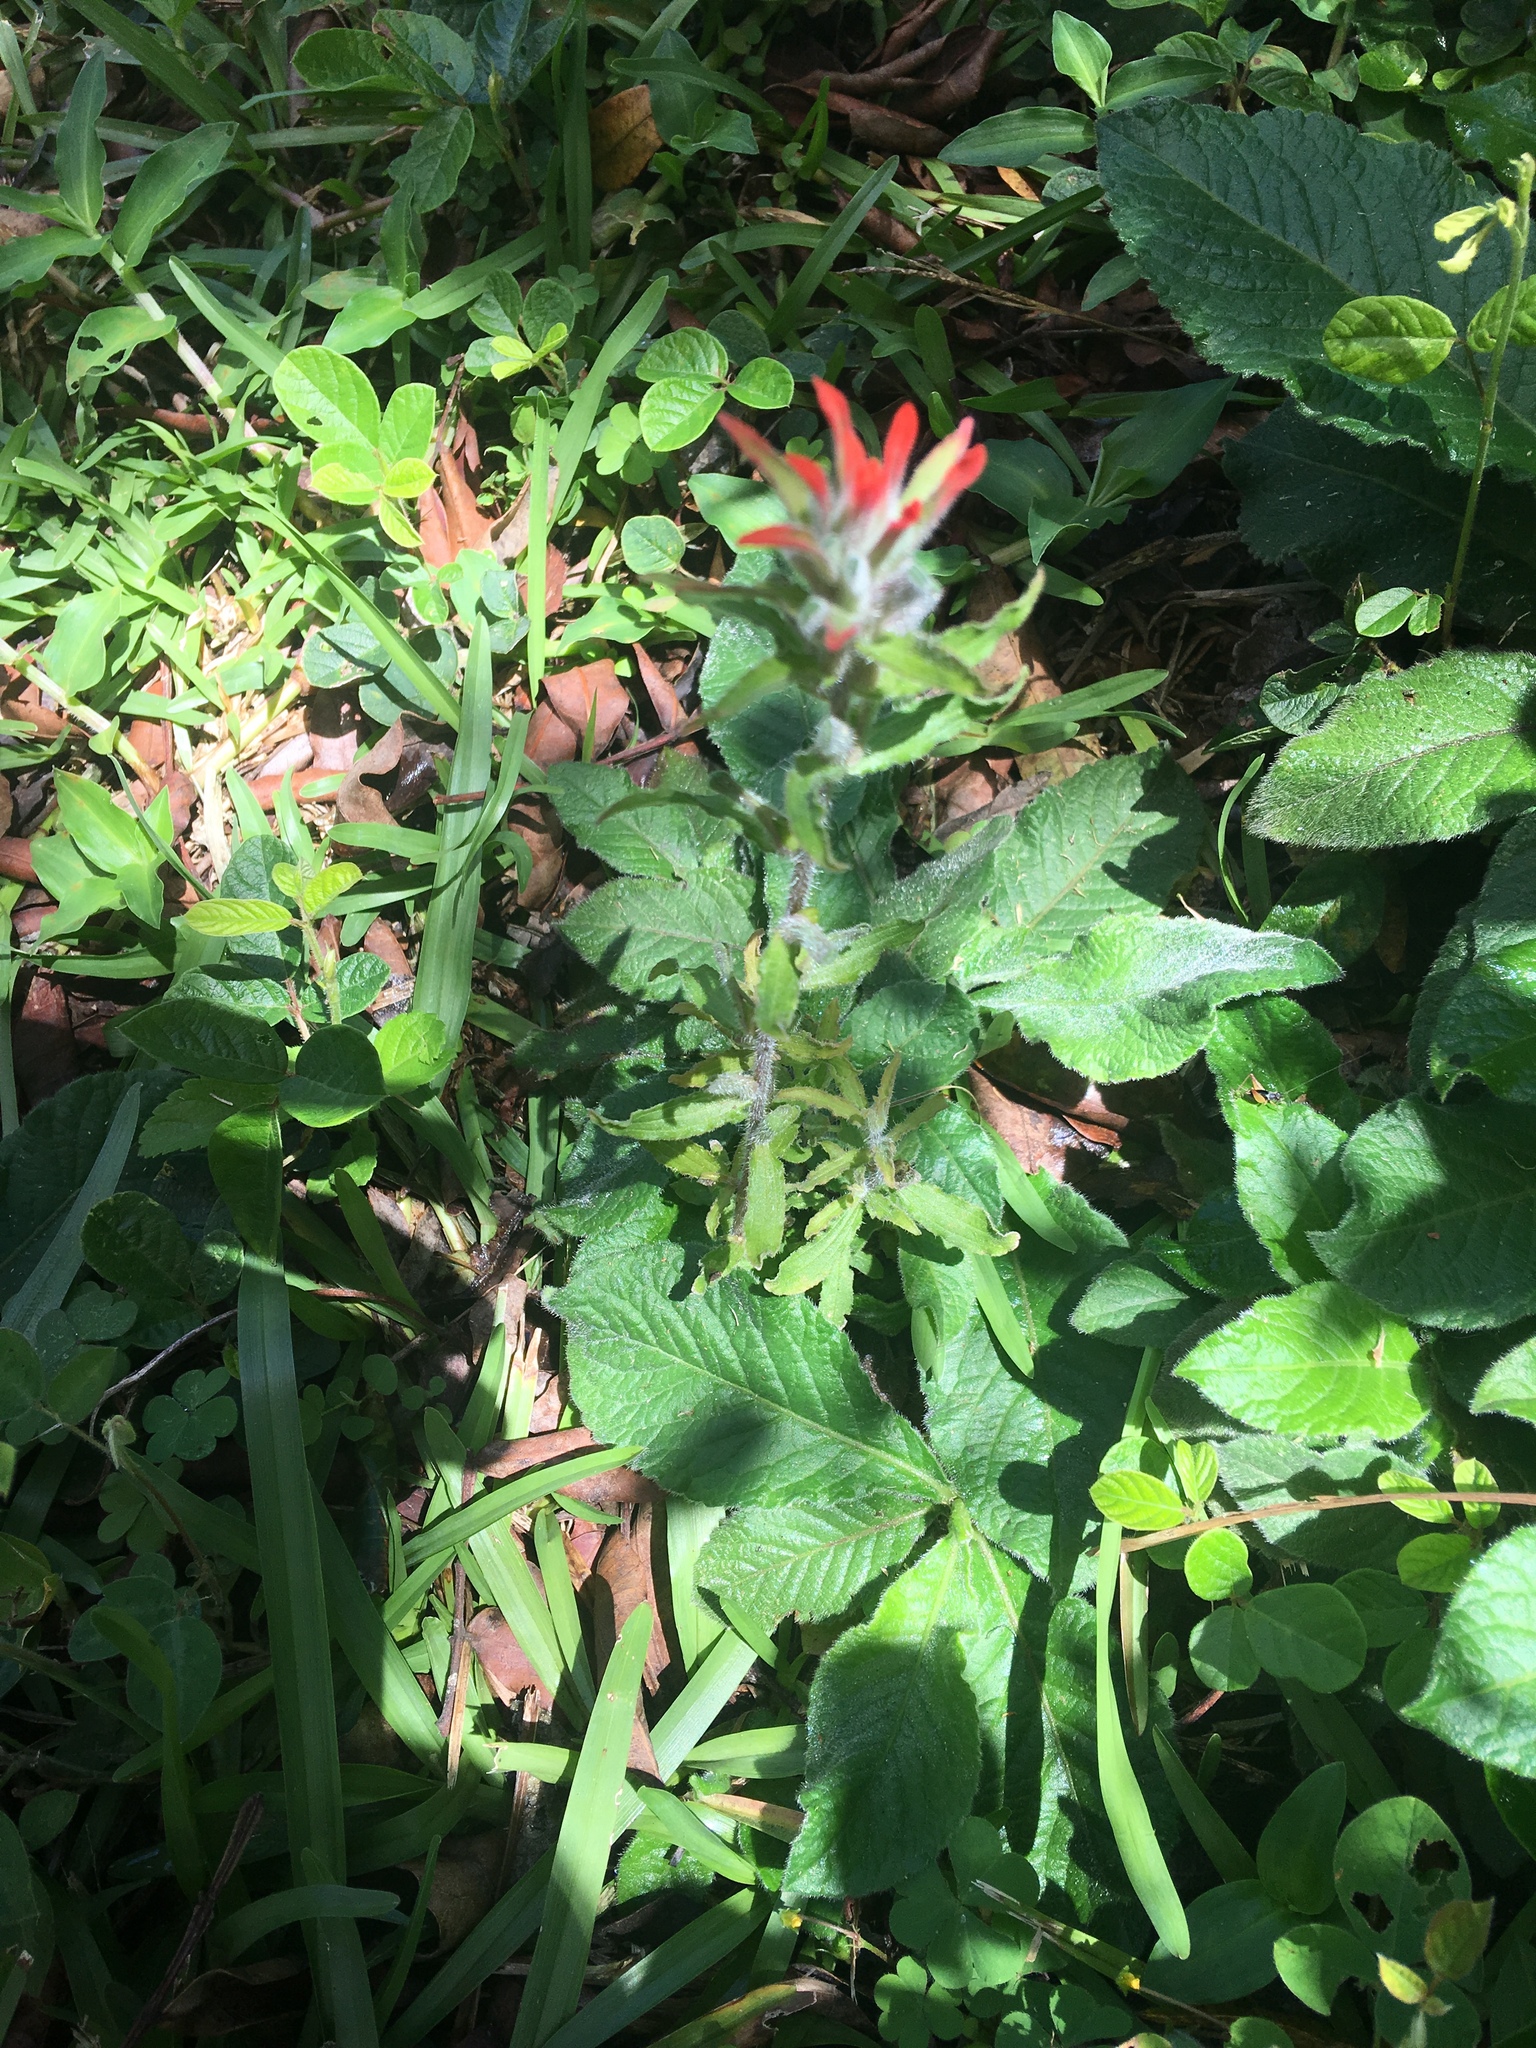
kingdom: Plantae
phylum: Tracheophyta
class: Magnoliopsida
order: Lamiales
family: Orobanchaceae
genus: Castilleja
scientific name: Castilleja arvensis
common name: Indian paintbrush
